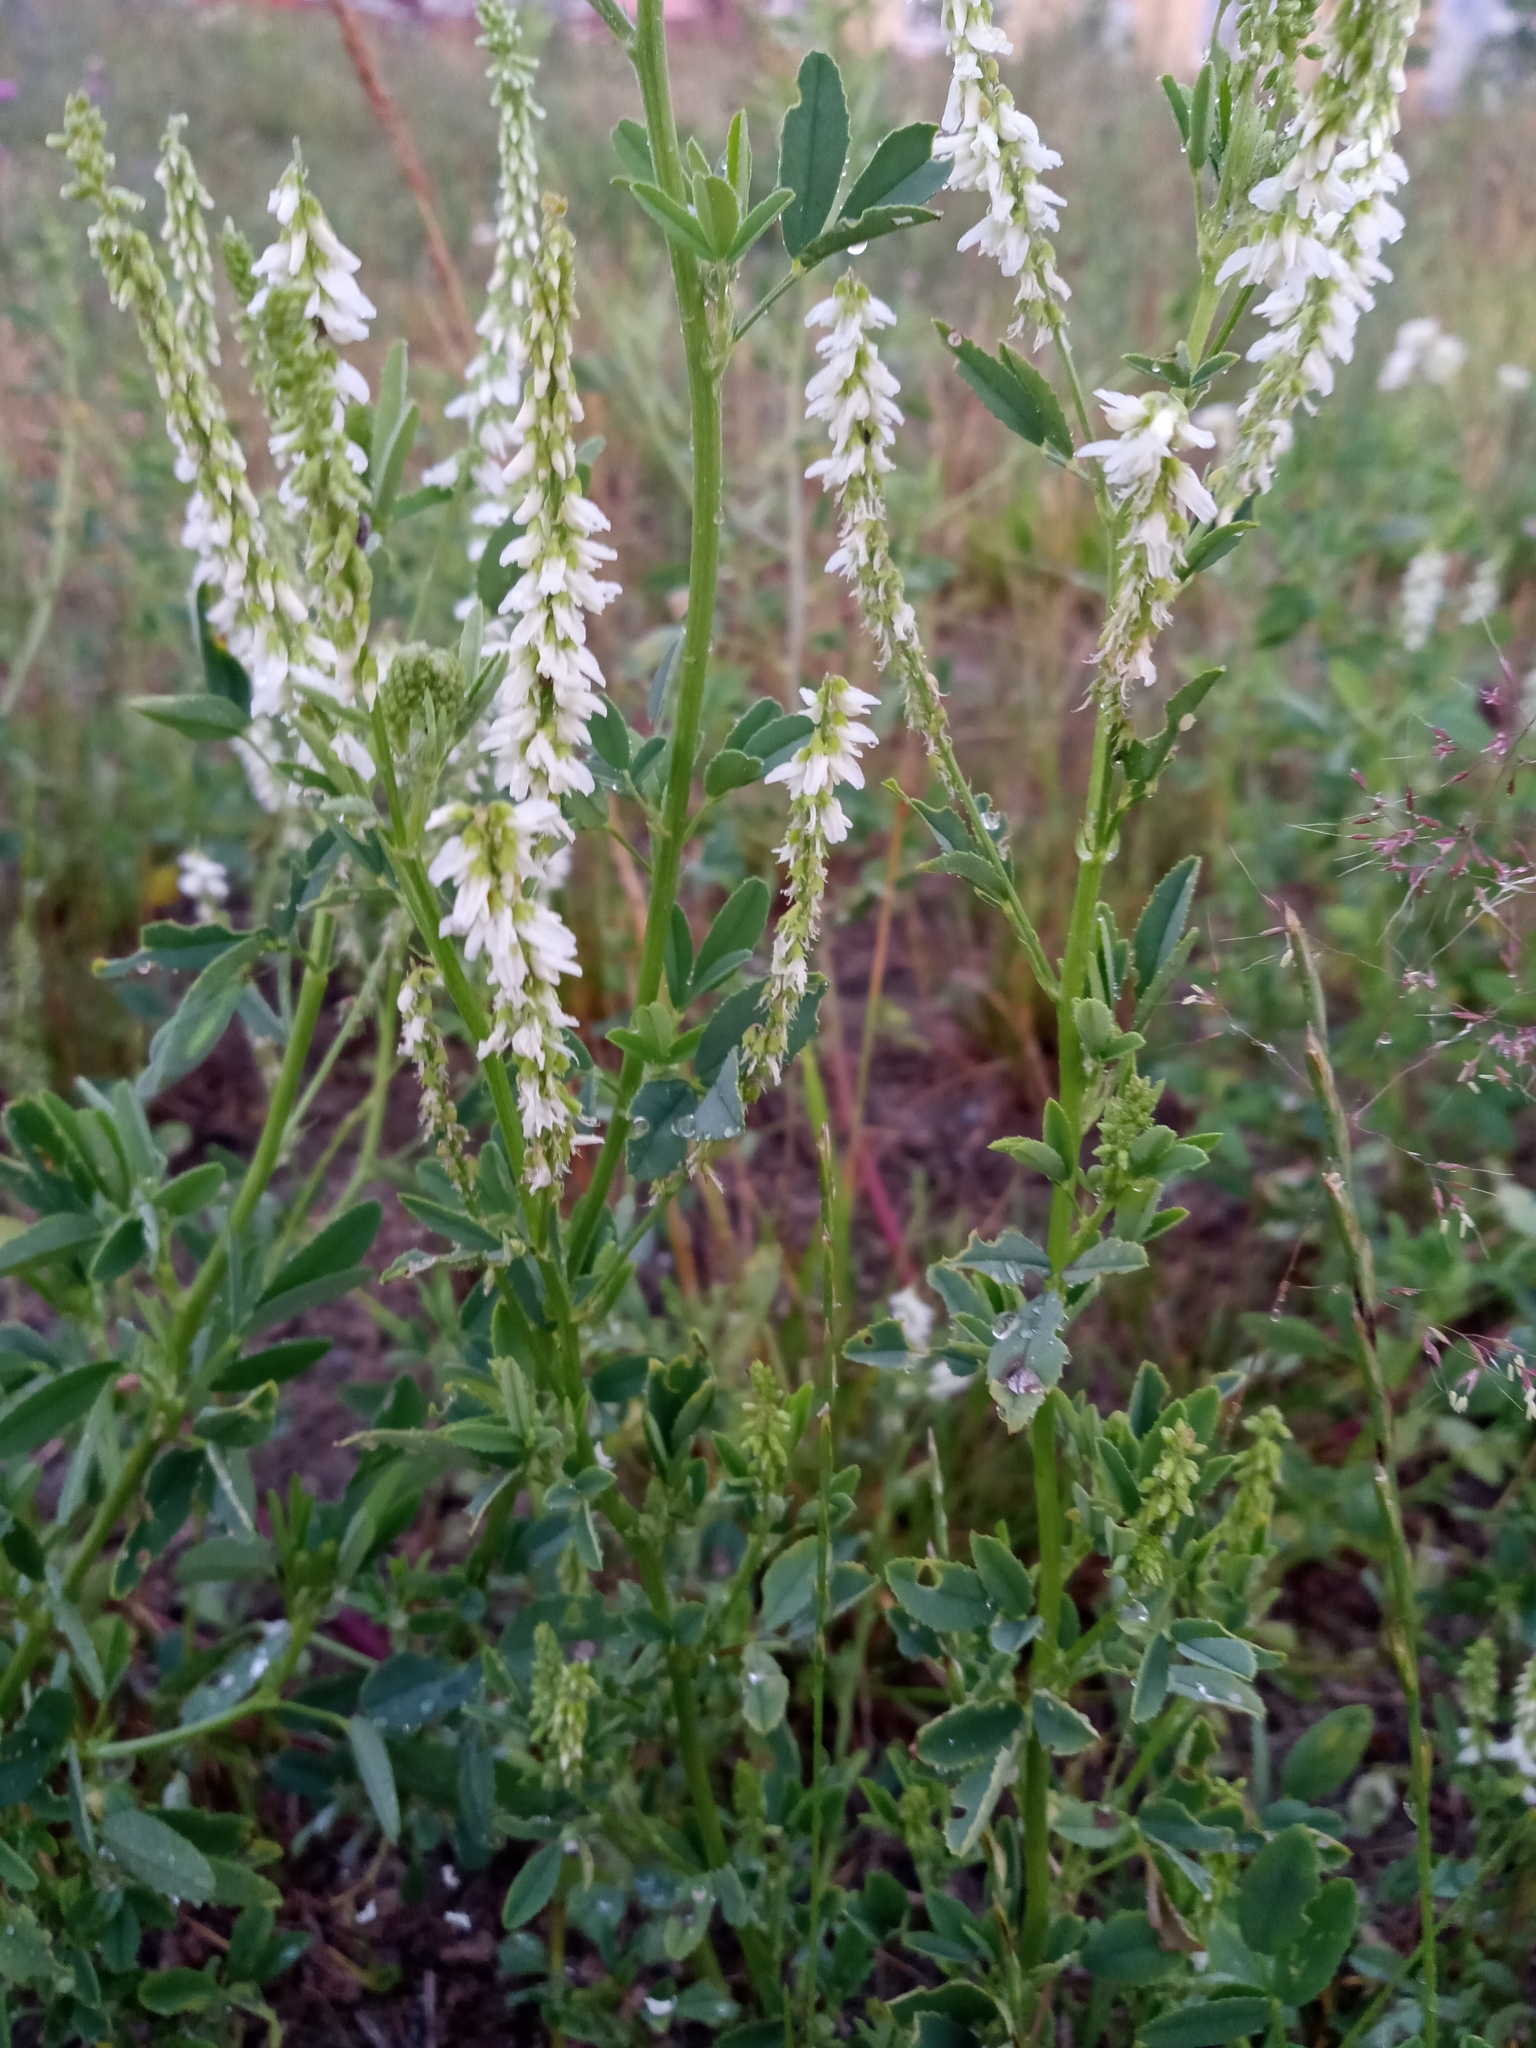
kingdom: Plantae
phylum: Tracheophyta
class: Magnoliopsida
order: Fabales
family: Fabaceae
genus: Melilotus
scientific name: Melilotus albus
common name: White melilot
